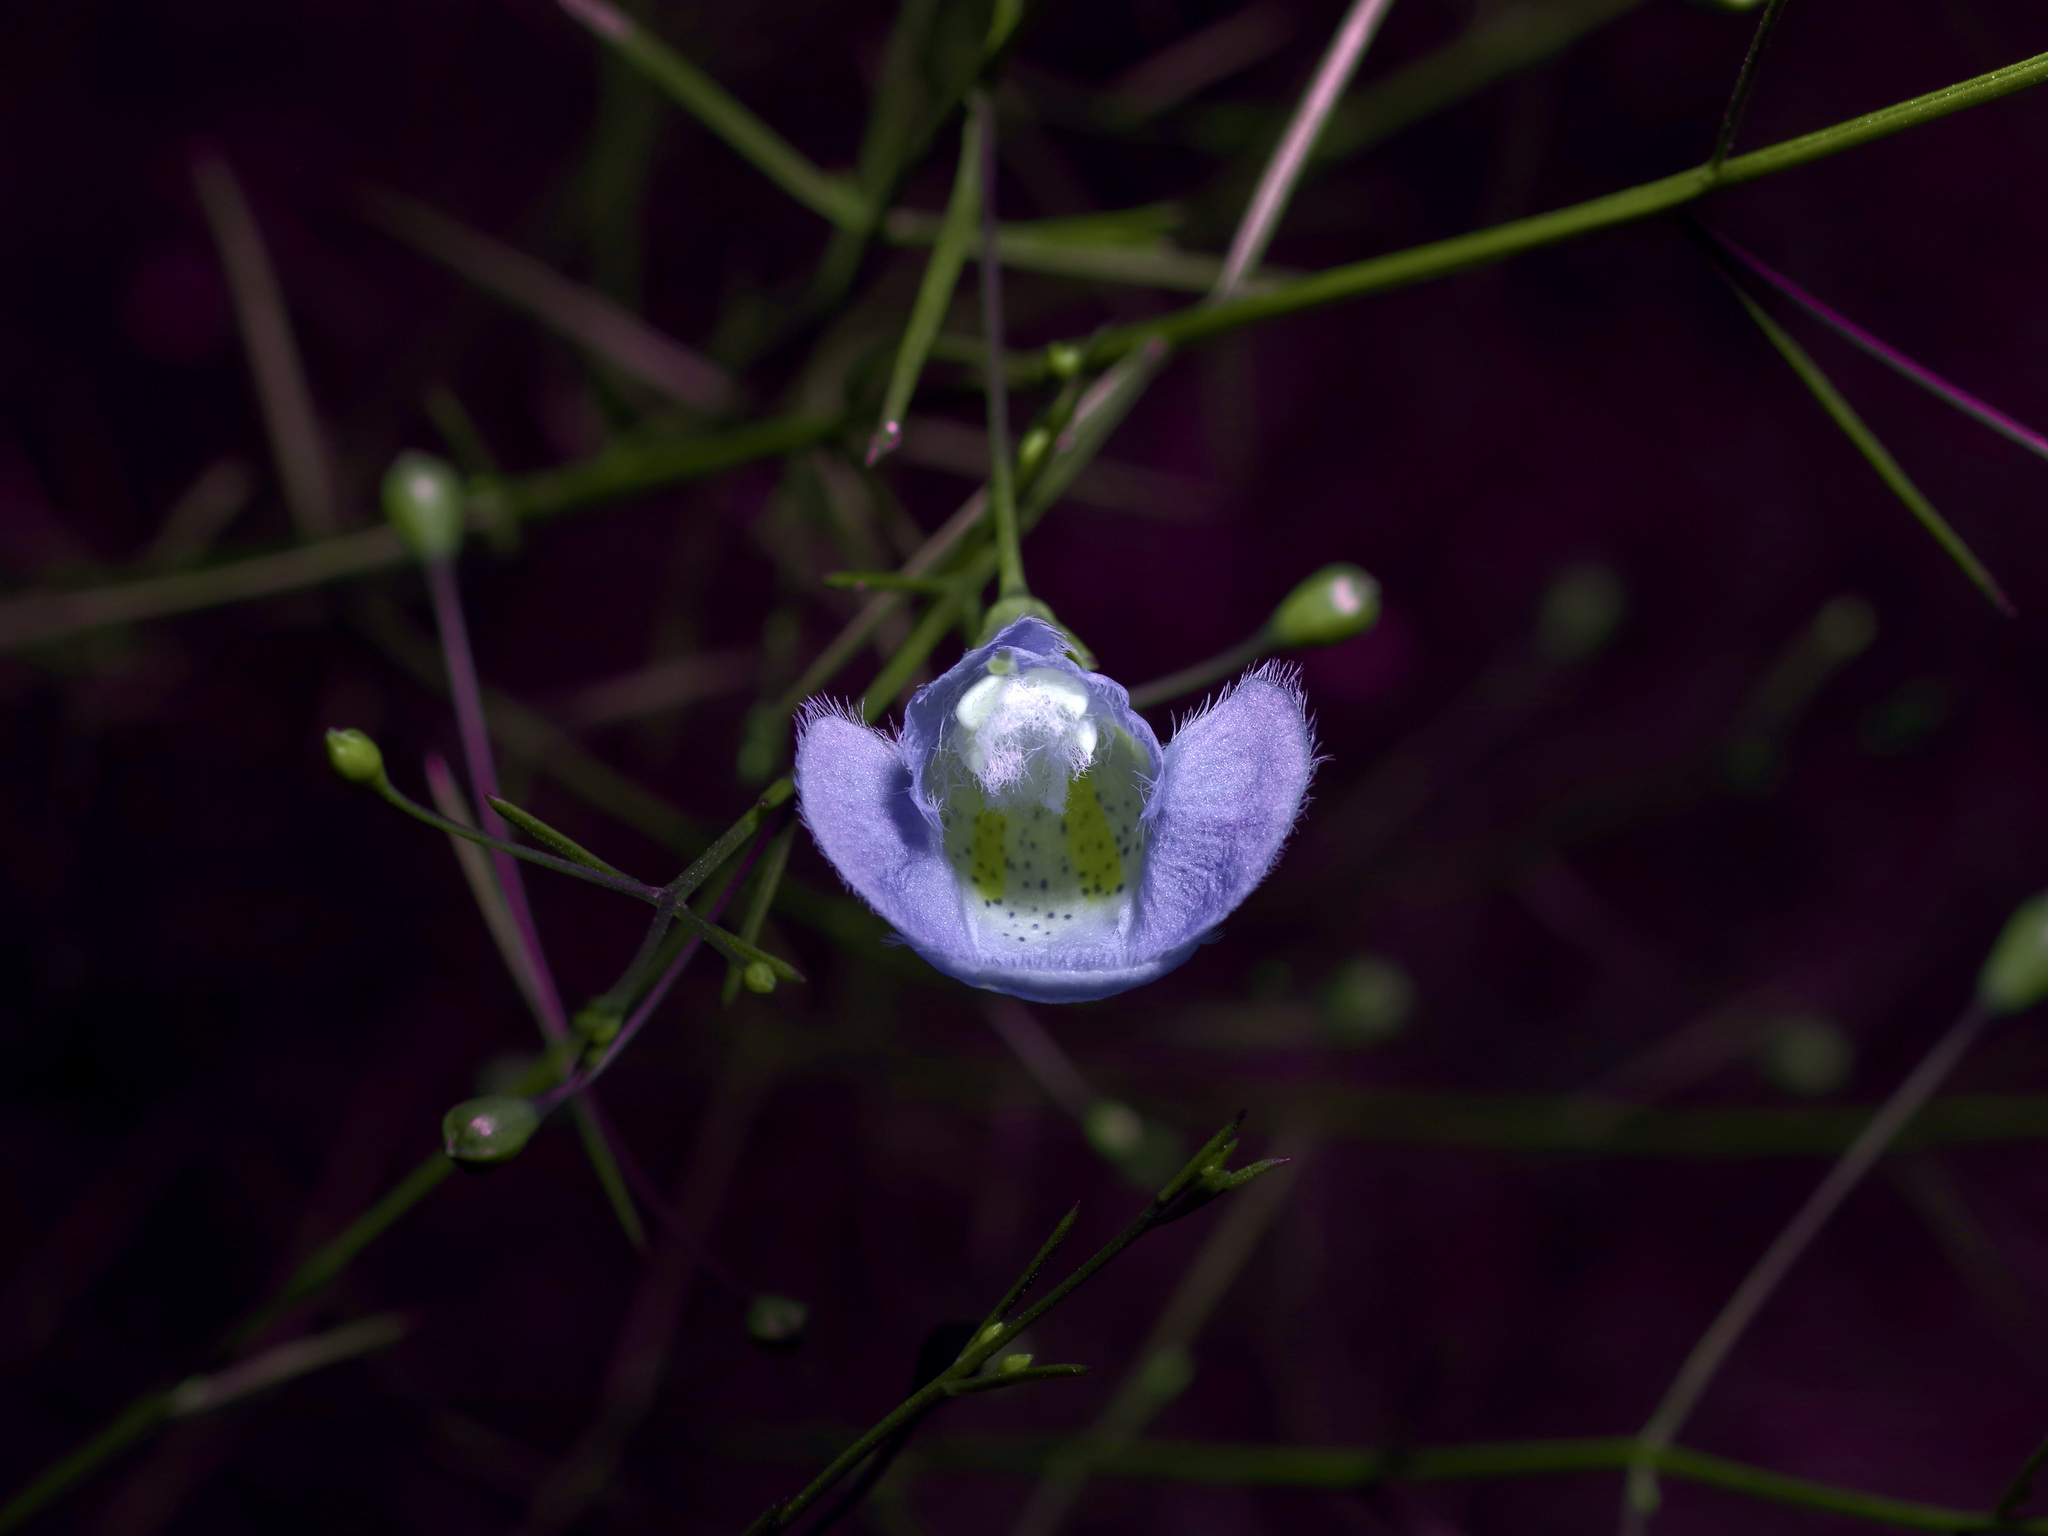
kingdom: Plantae
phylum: Tracheophyta
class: Magnoliopsida
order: Lamiales
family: Orobanchaceae
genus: Agalinis
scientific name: Agalinis edwardsiana
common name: Plateau-gerardia
